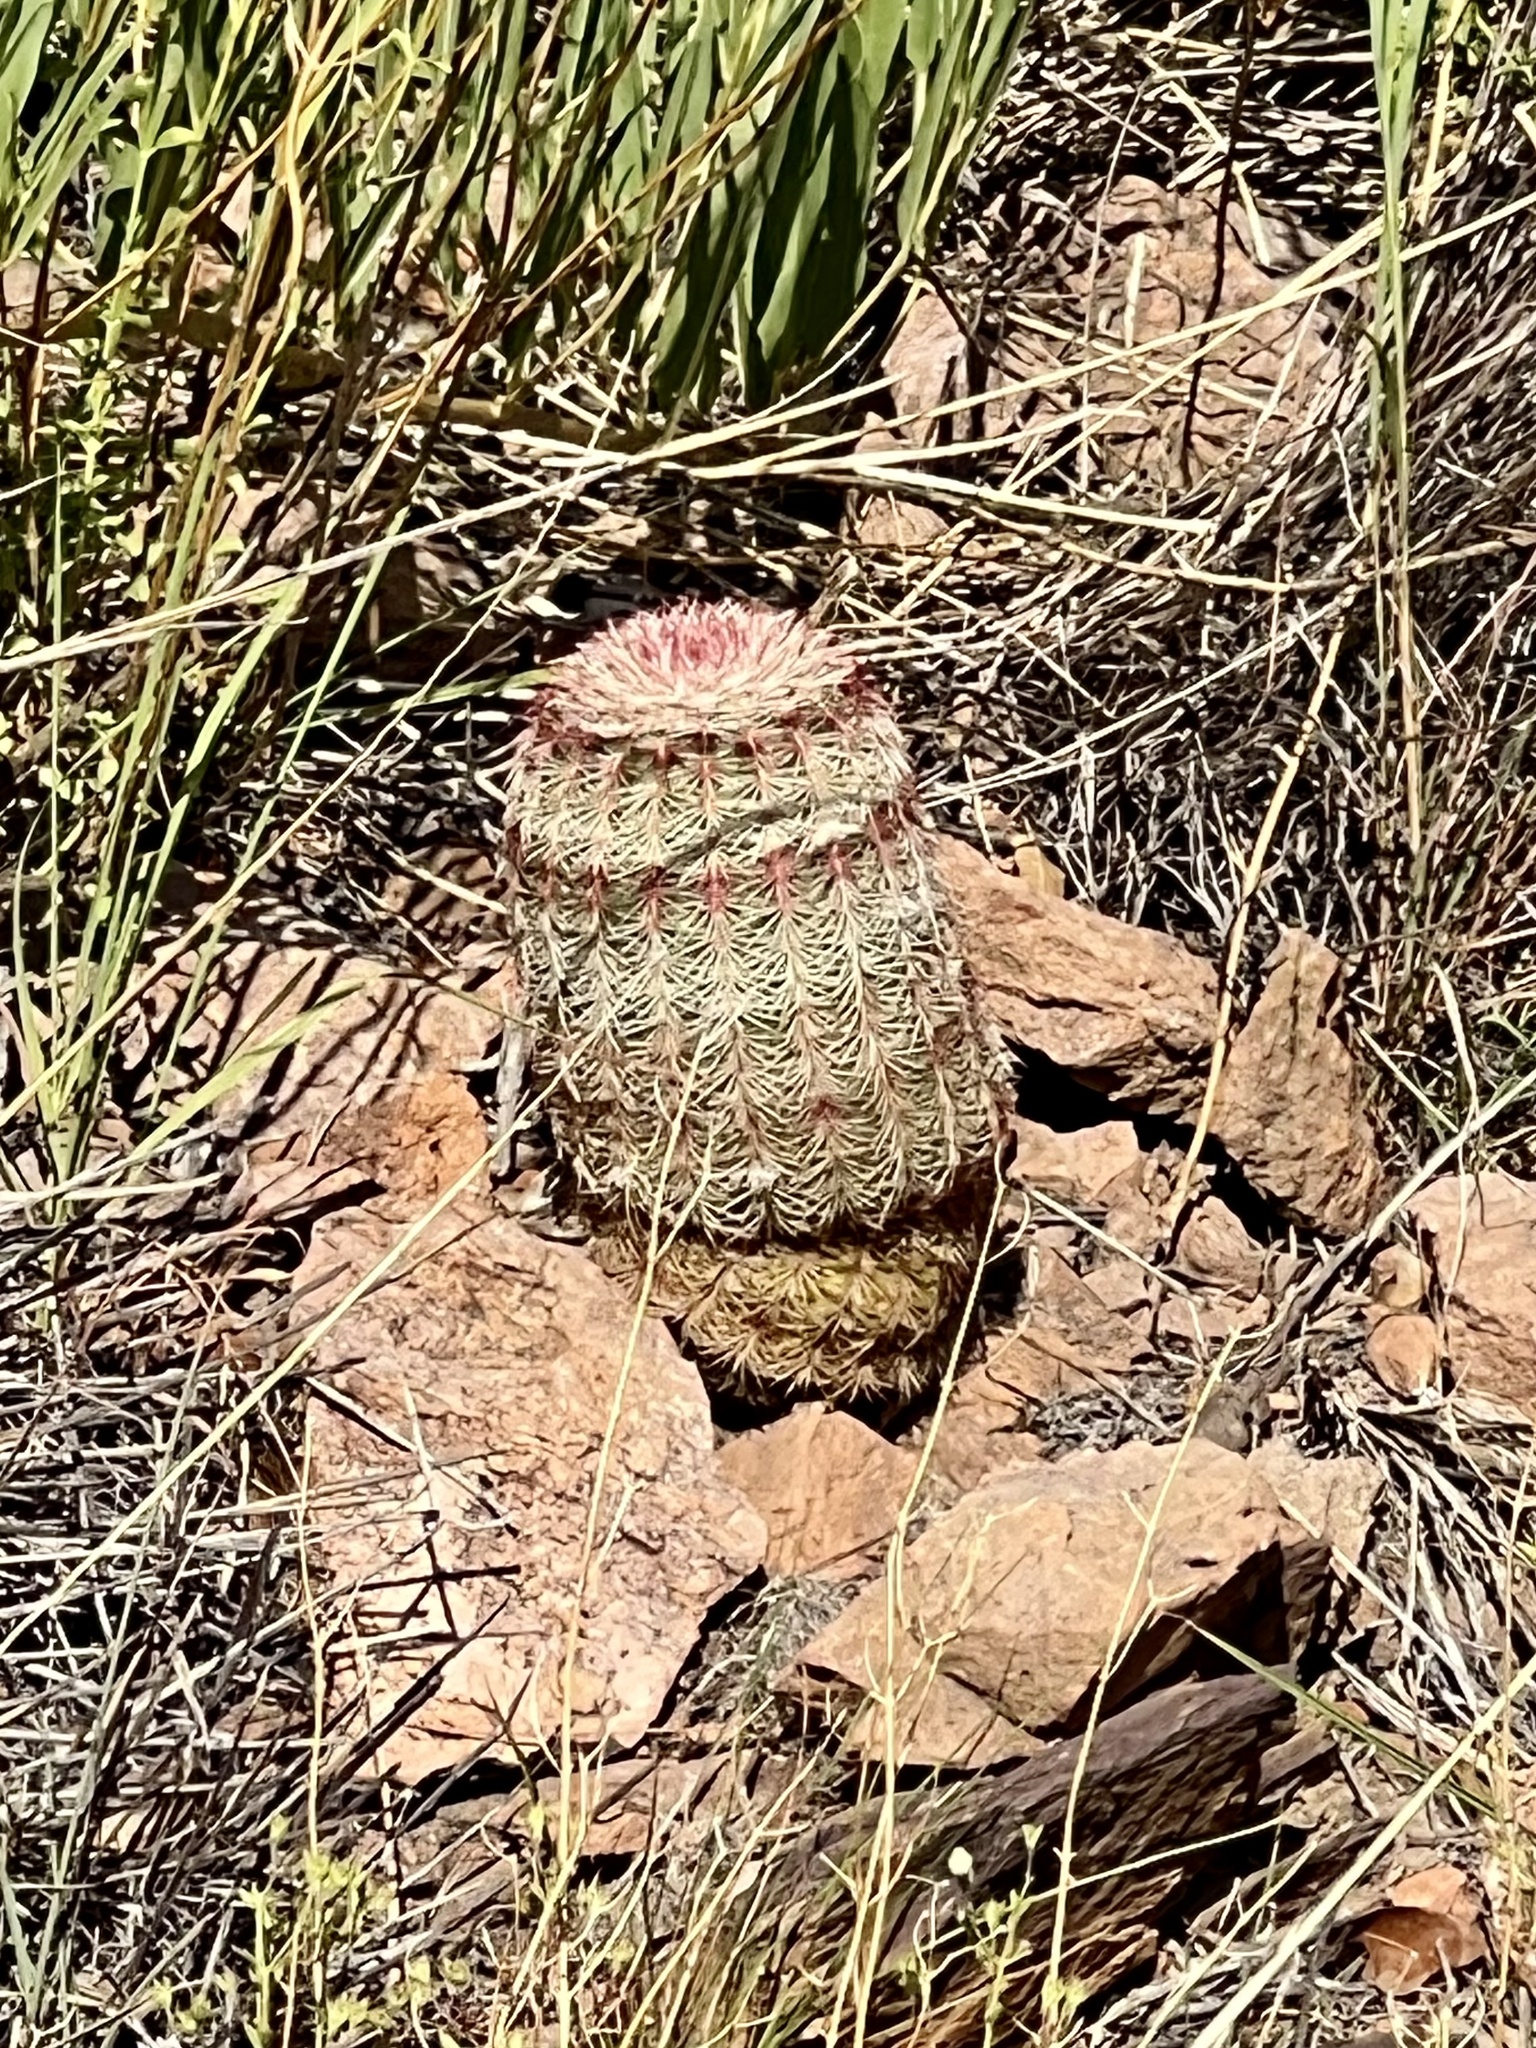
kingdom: Plantae
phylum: Tracheophyta
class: Magnoliopsida
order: Caryophyllales
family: Cactaceae
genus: Echinocereus
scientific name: Echinocereus rigidissimus
